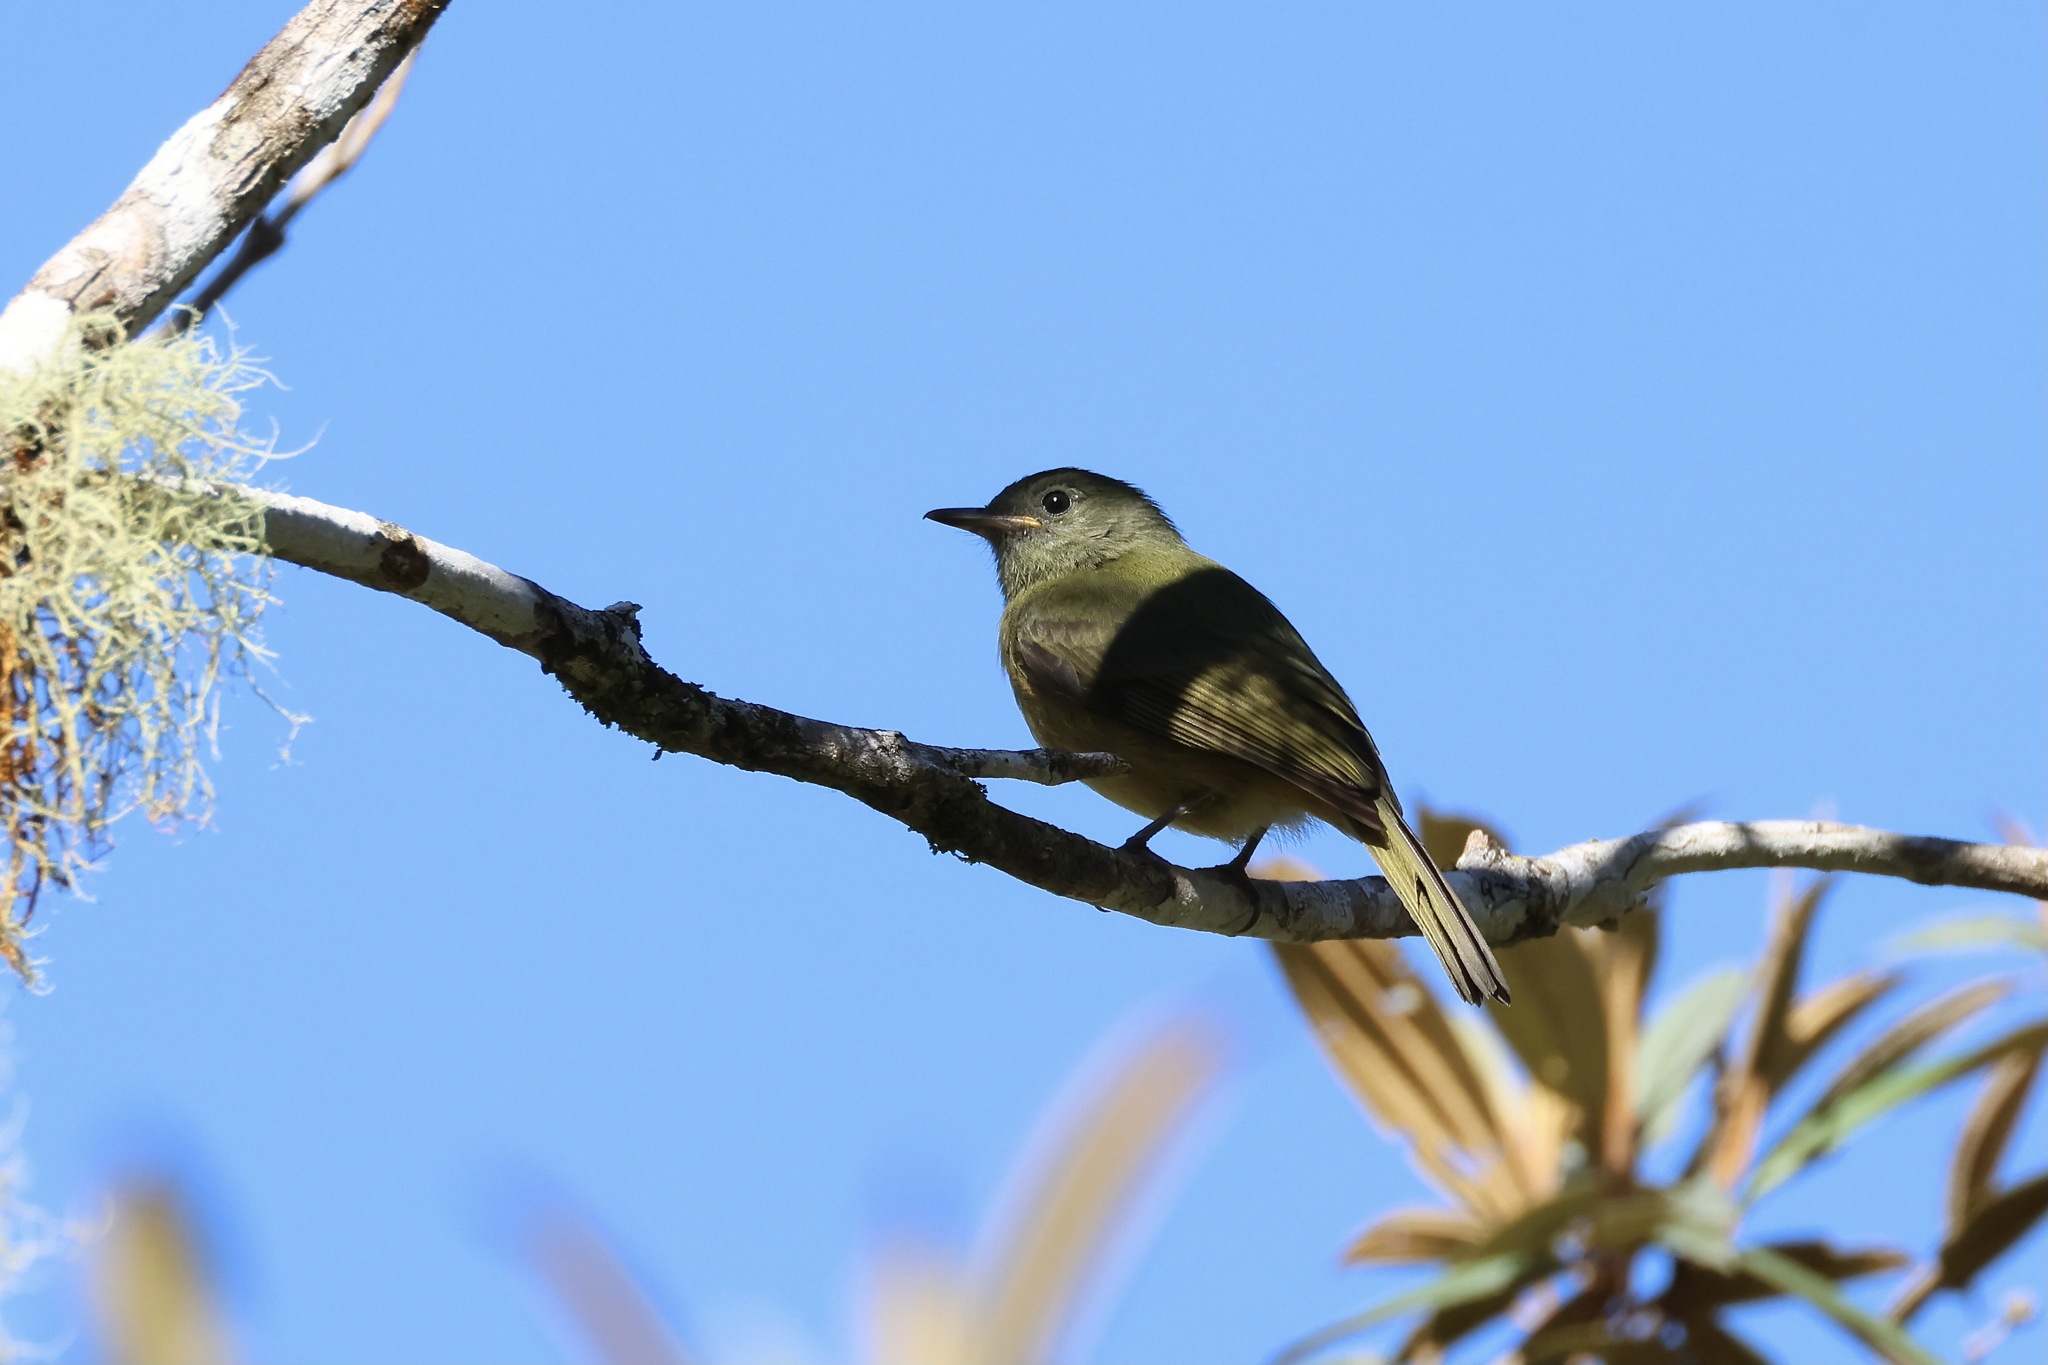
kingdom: Animalia
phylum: Chordata
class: Aves
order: Passeriformes
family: Tyrannidae
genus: Mionectes
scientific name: Mionectes oleagineus
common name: Ochre-bellied flycatcher
